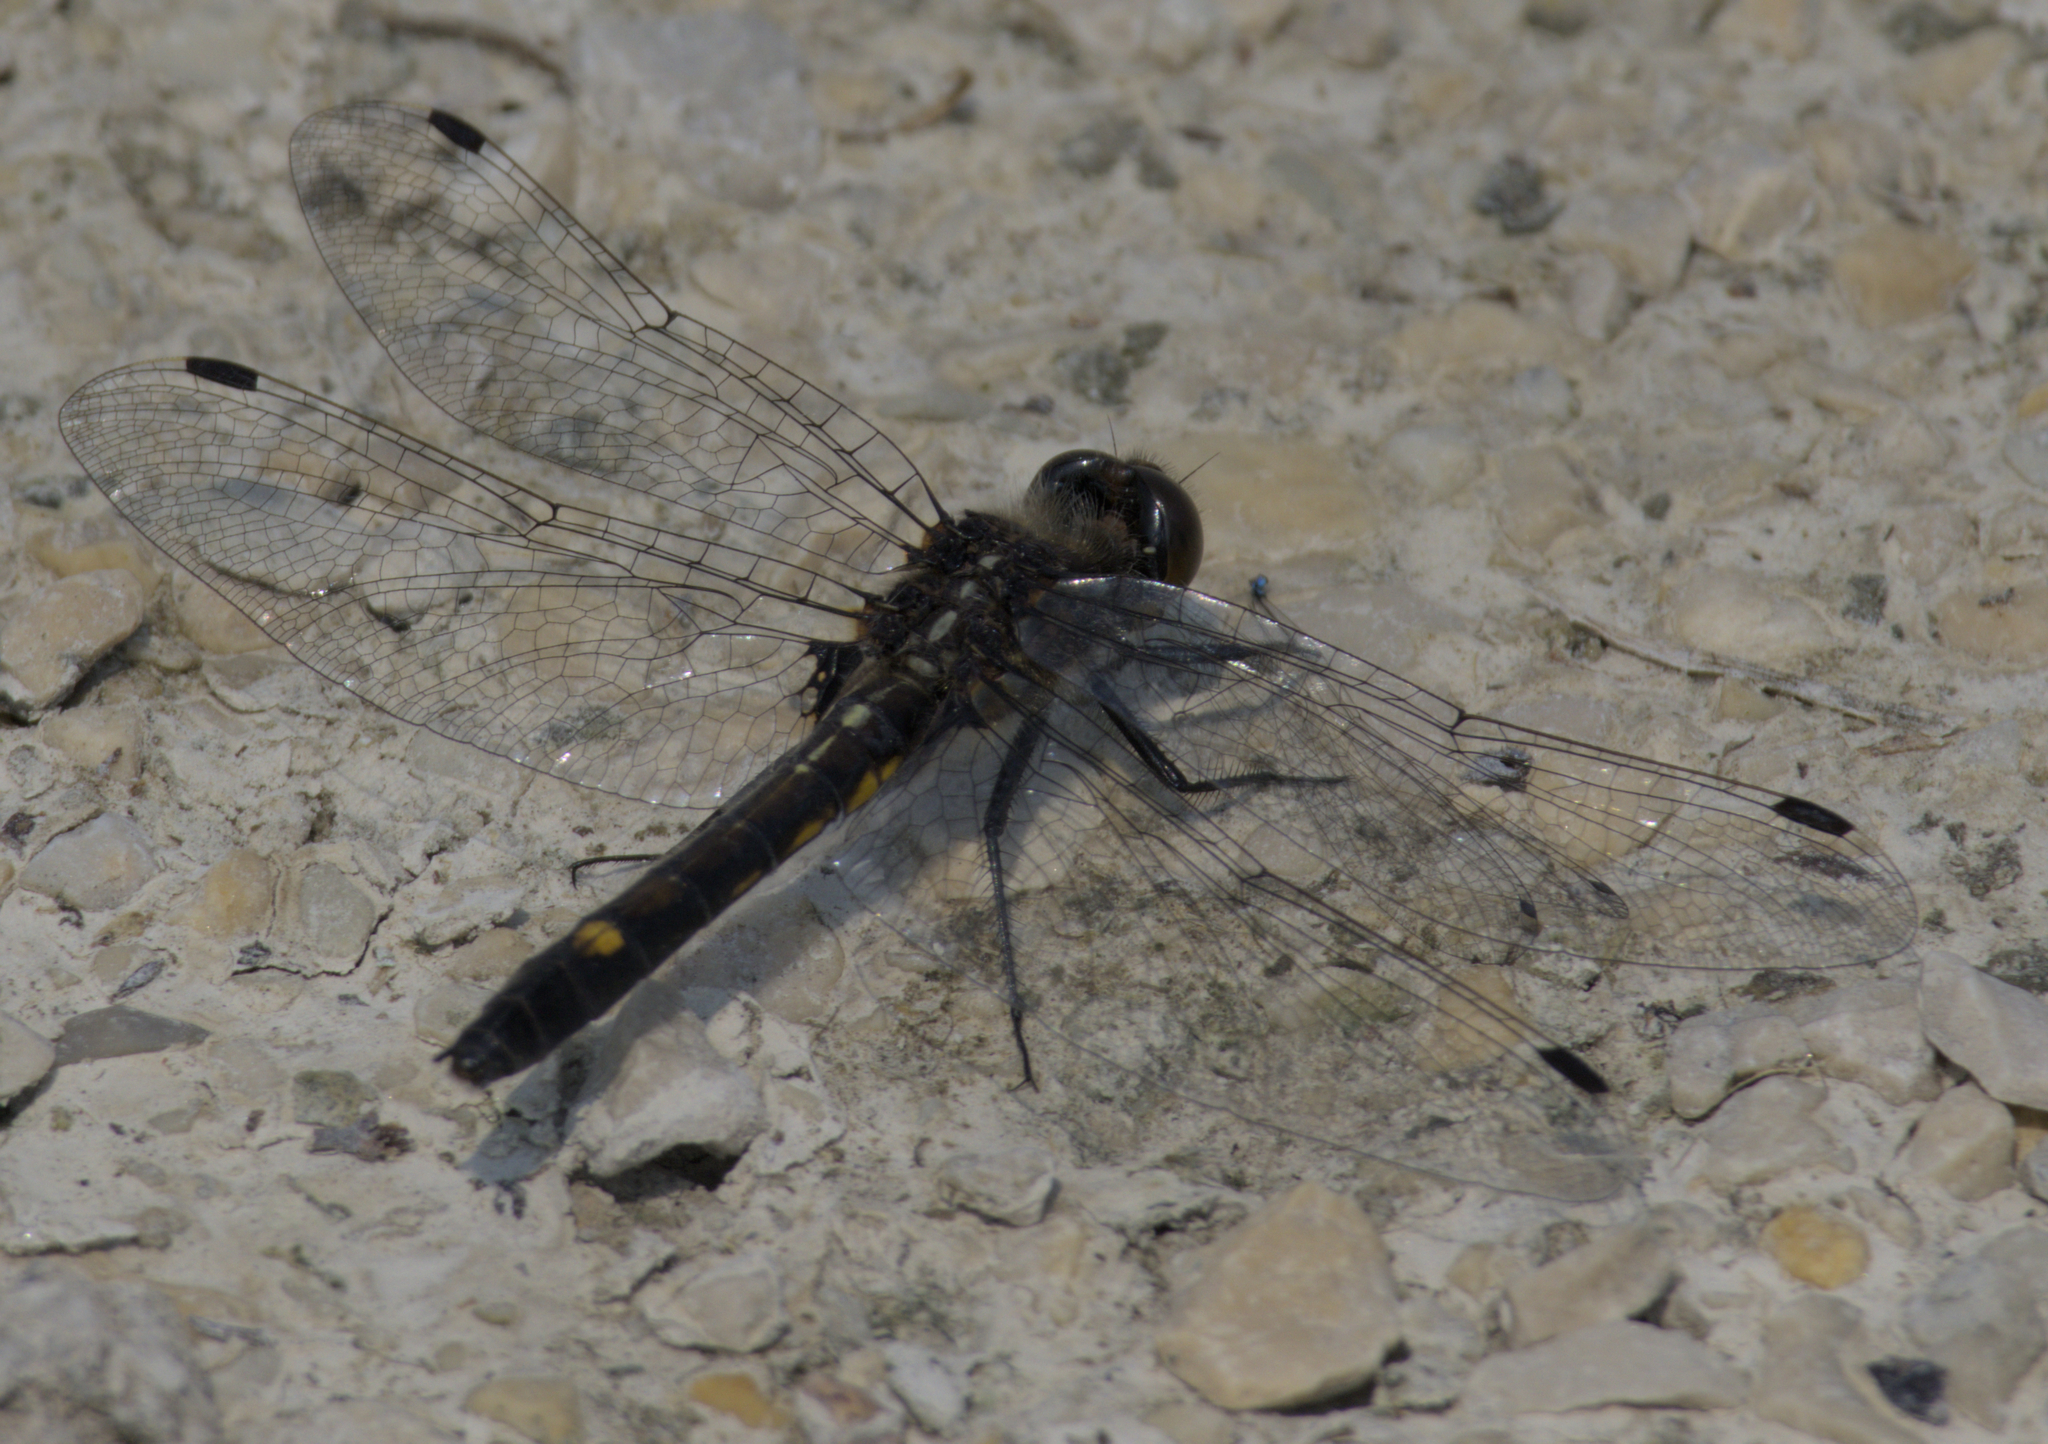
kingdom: Animalia
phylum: Arthropoda
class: Insecta
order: Odonata
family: Libellulidae
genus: Leucorrhinia
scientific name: Leucorrhinia intacta
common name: Dot-tailed whiteface
